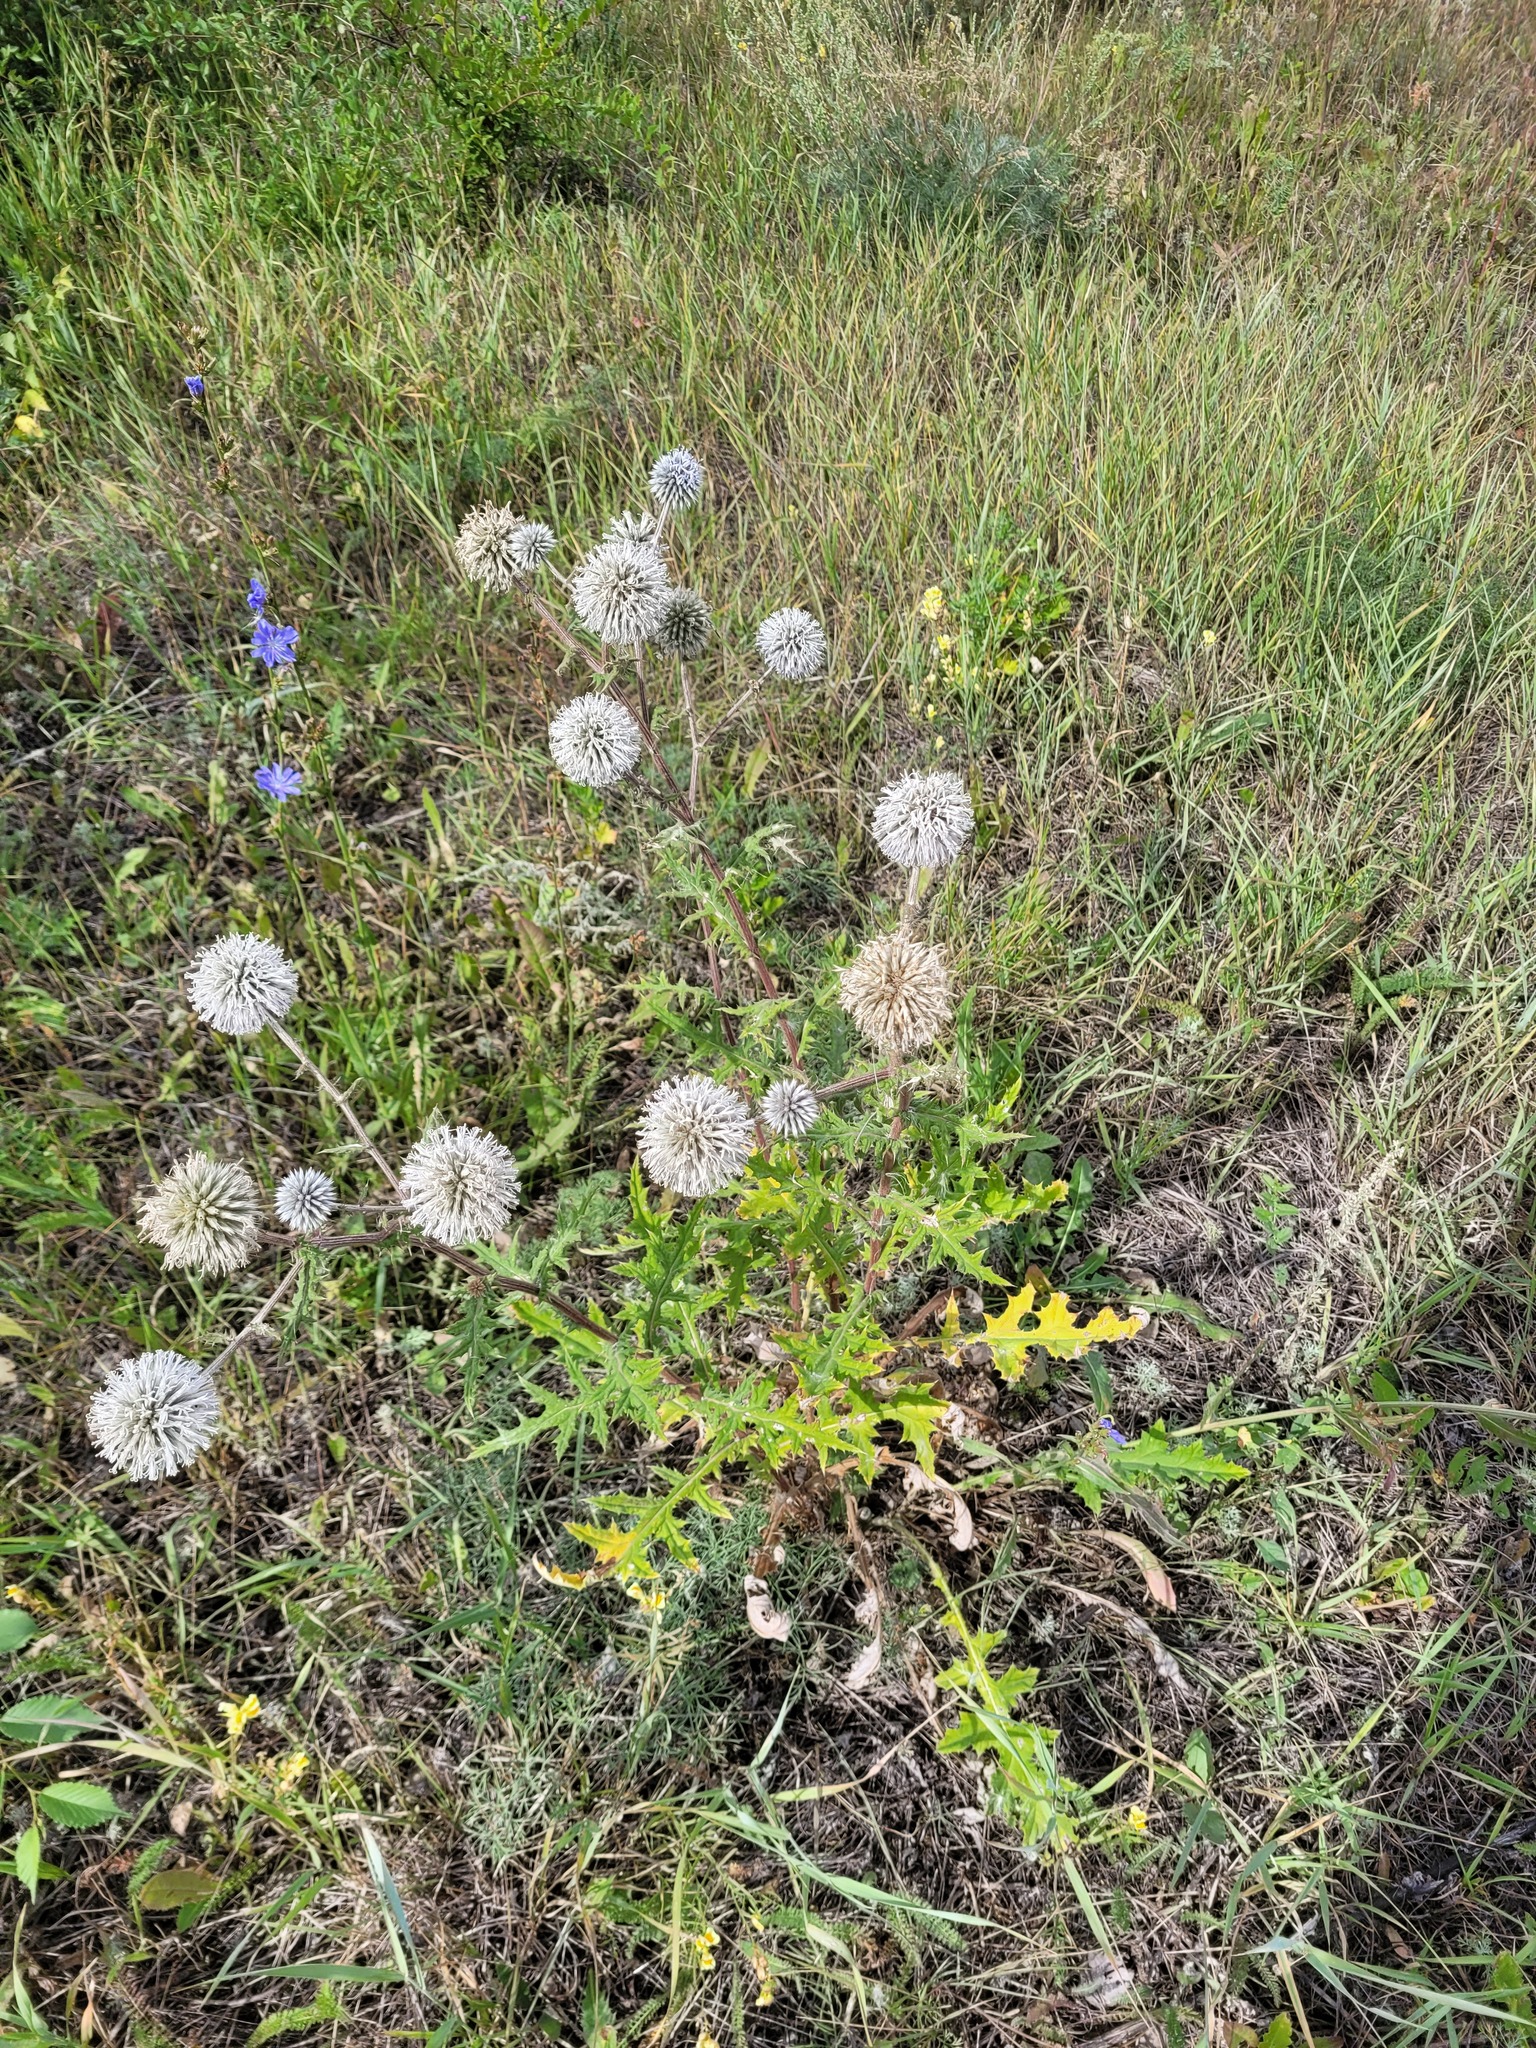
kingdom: Plantae
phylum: Tracheophyta
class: Magnoliopsida
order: Asterales
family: Asteraceae
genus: Echinops
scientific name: Echinops sphaerocephalus
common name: Glandular globe-thistle
